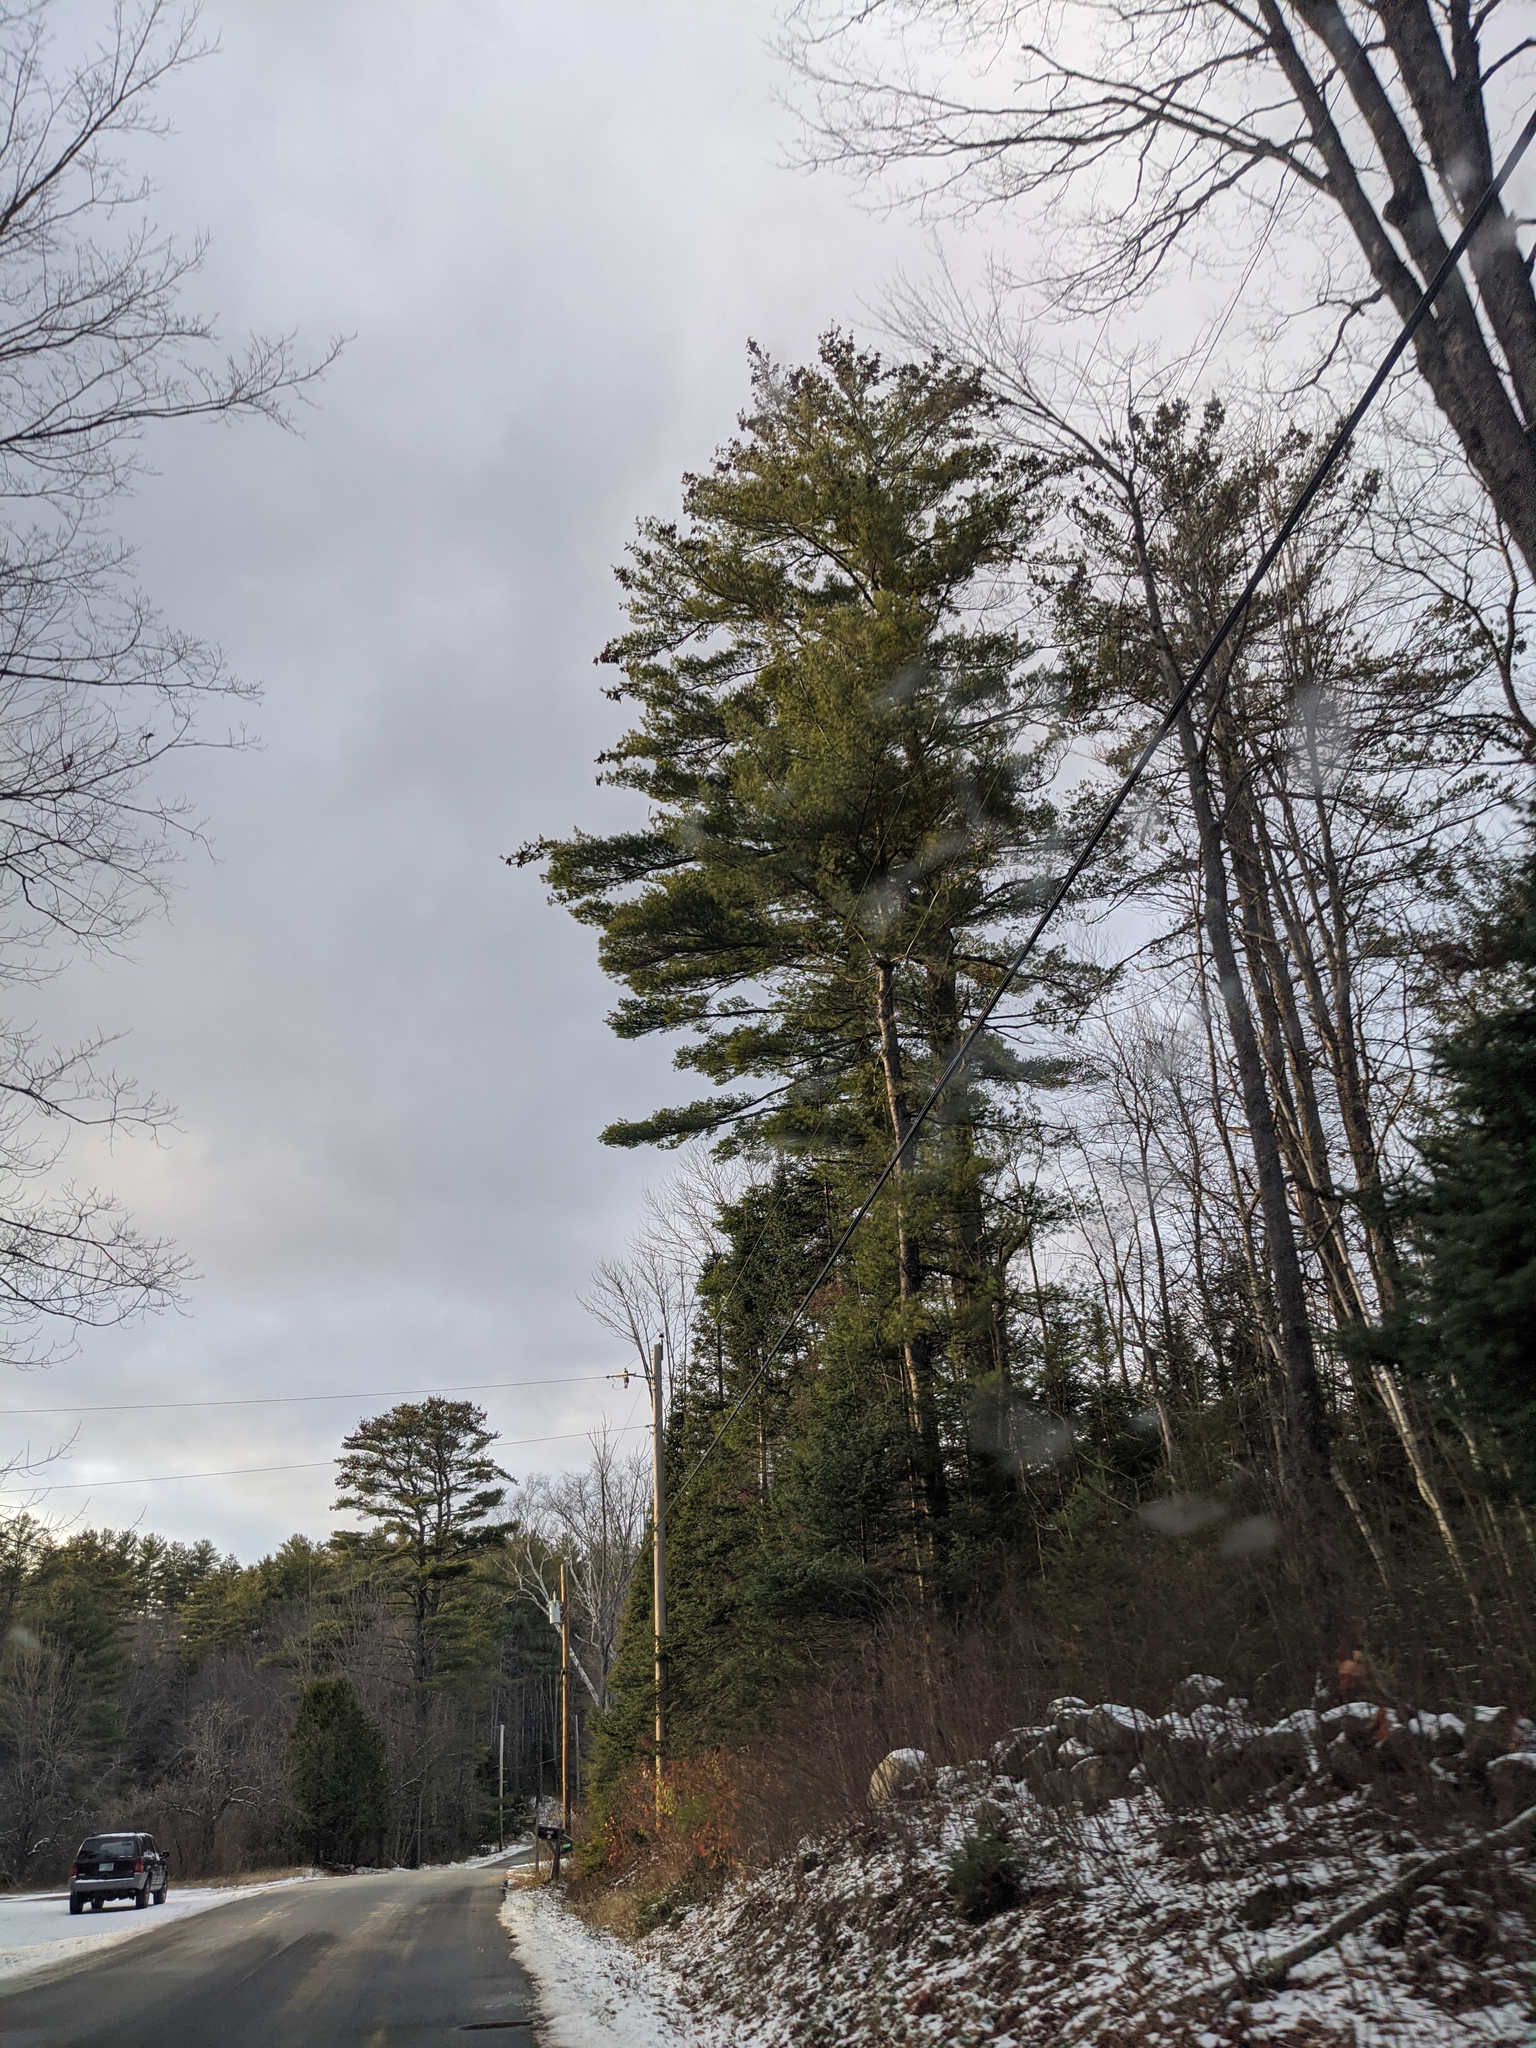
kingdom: Plantae
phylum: Tracheophyta
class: Pinopsida
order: Pinales
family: Pinaceae
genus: Pinus
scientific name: Pinus strobus
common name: Weymouth pine
